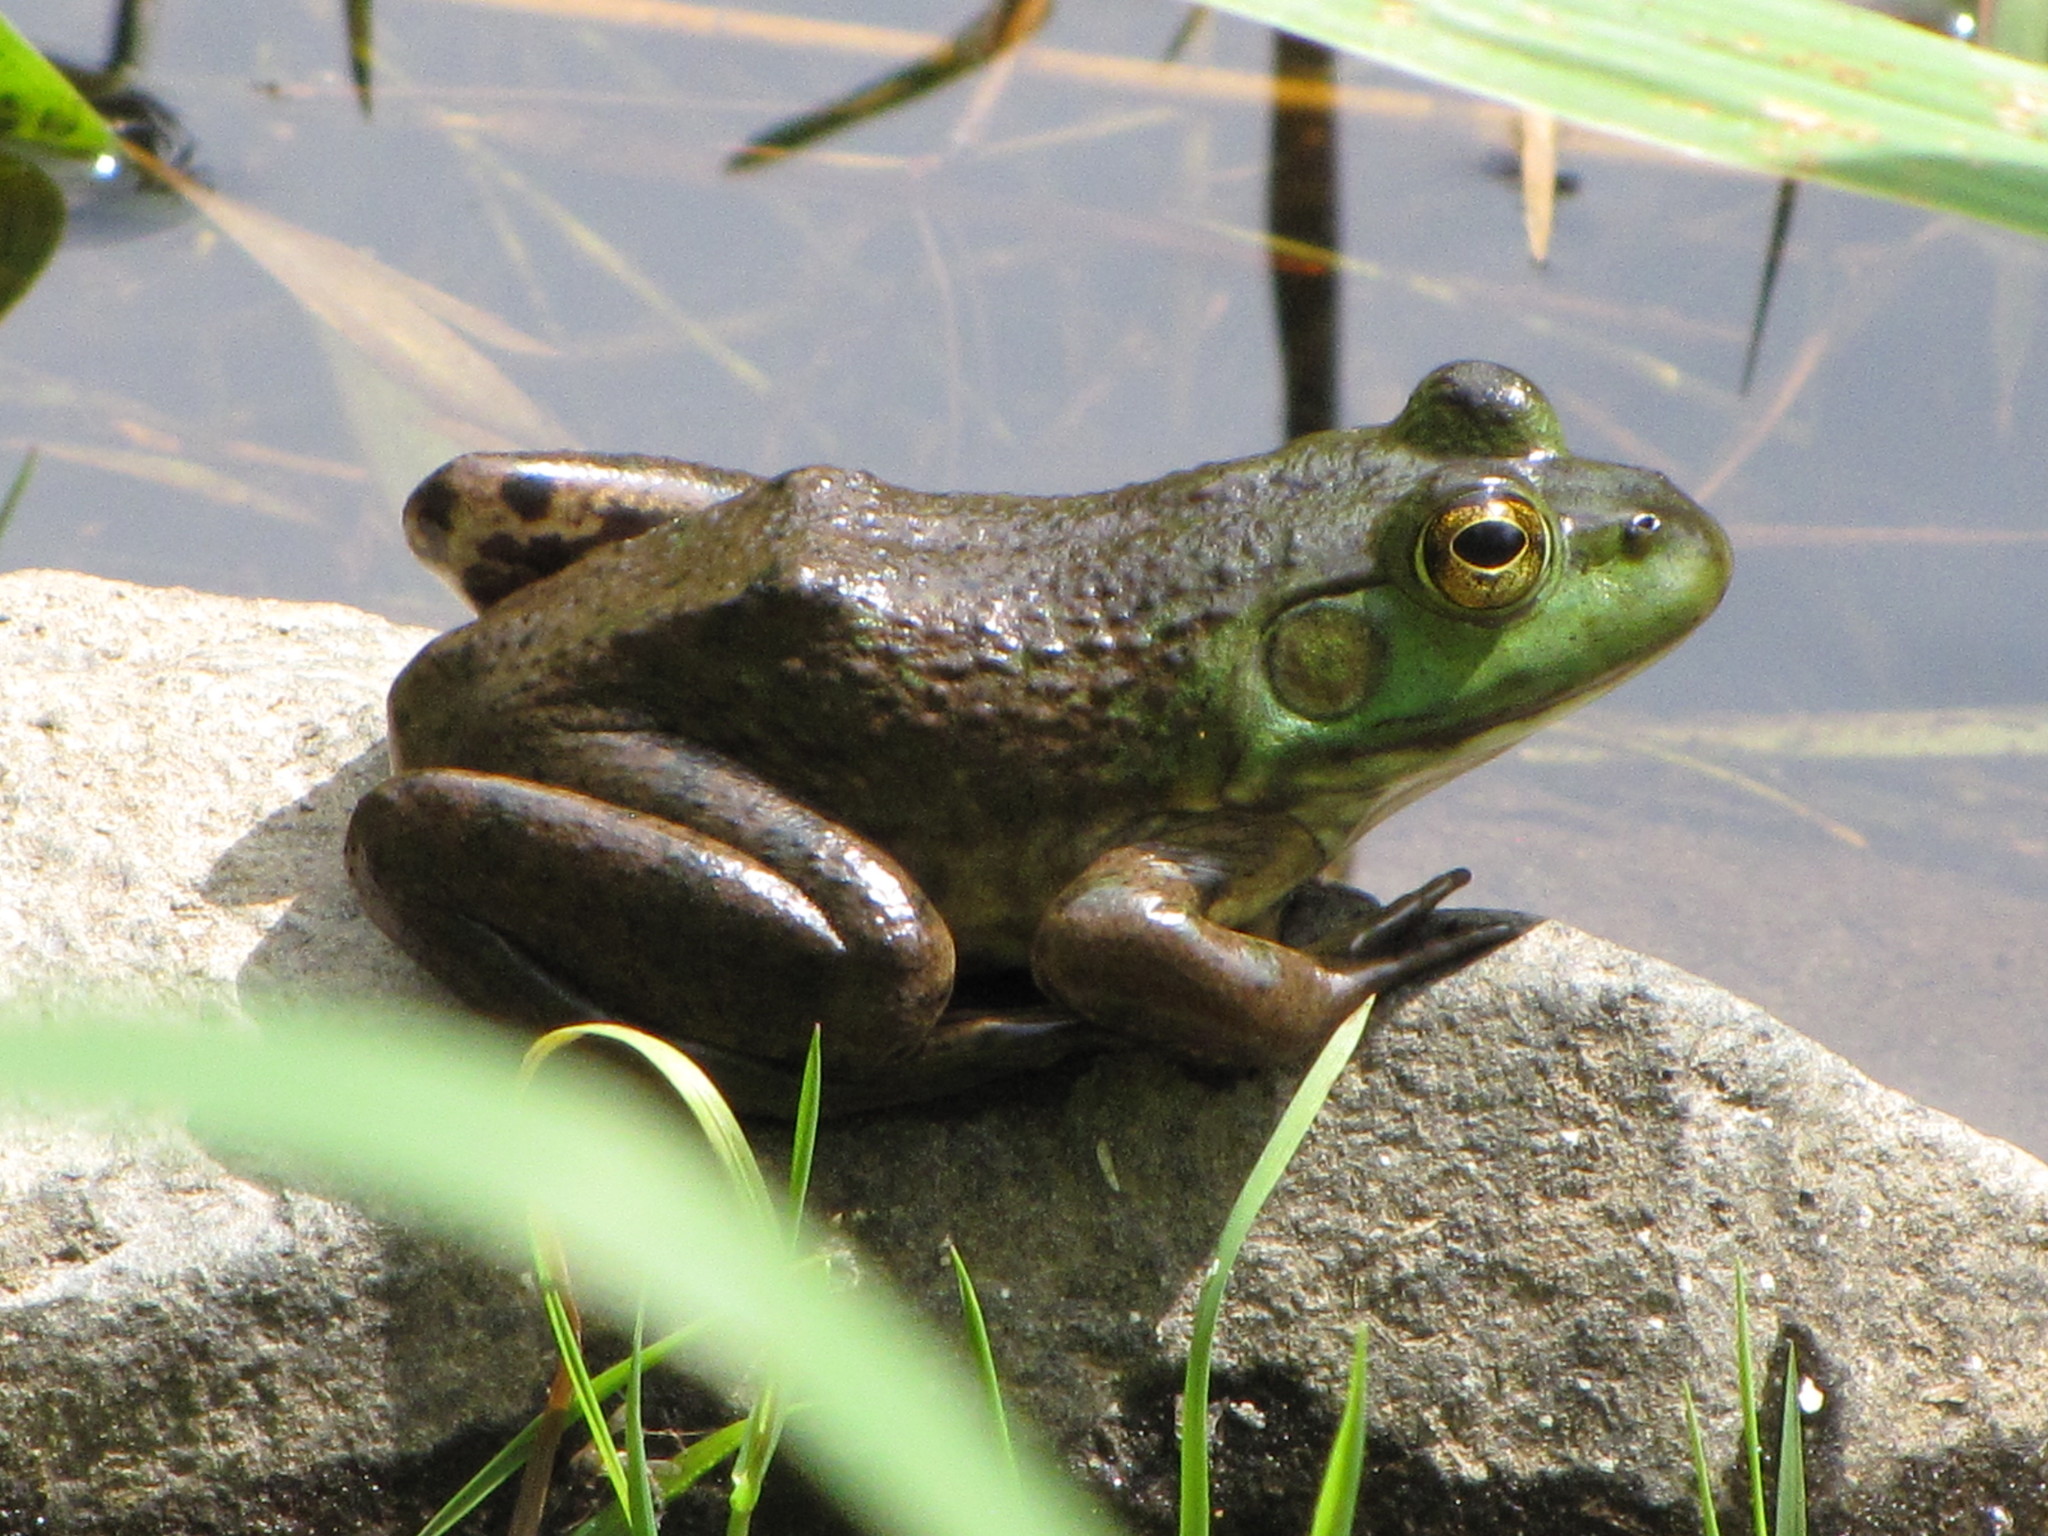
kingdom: Animalia
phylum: Chordata
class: Amphibia
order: Anura
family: Ranidae
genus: Lithobates
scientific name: Lithobates catesbeianus
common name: American bullfrog
